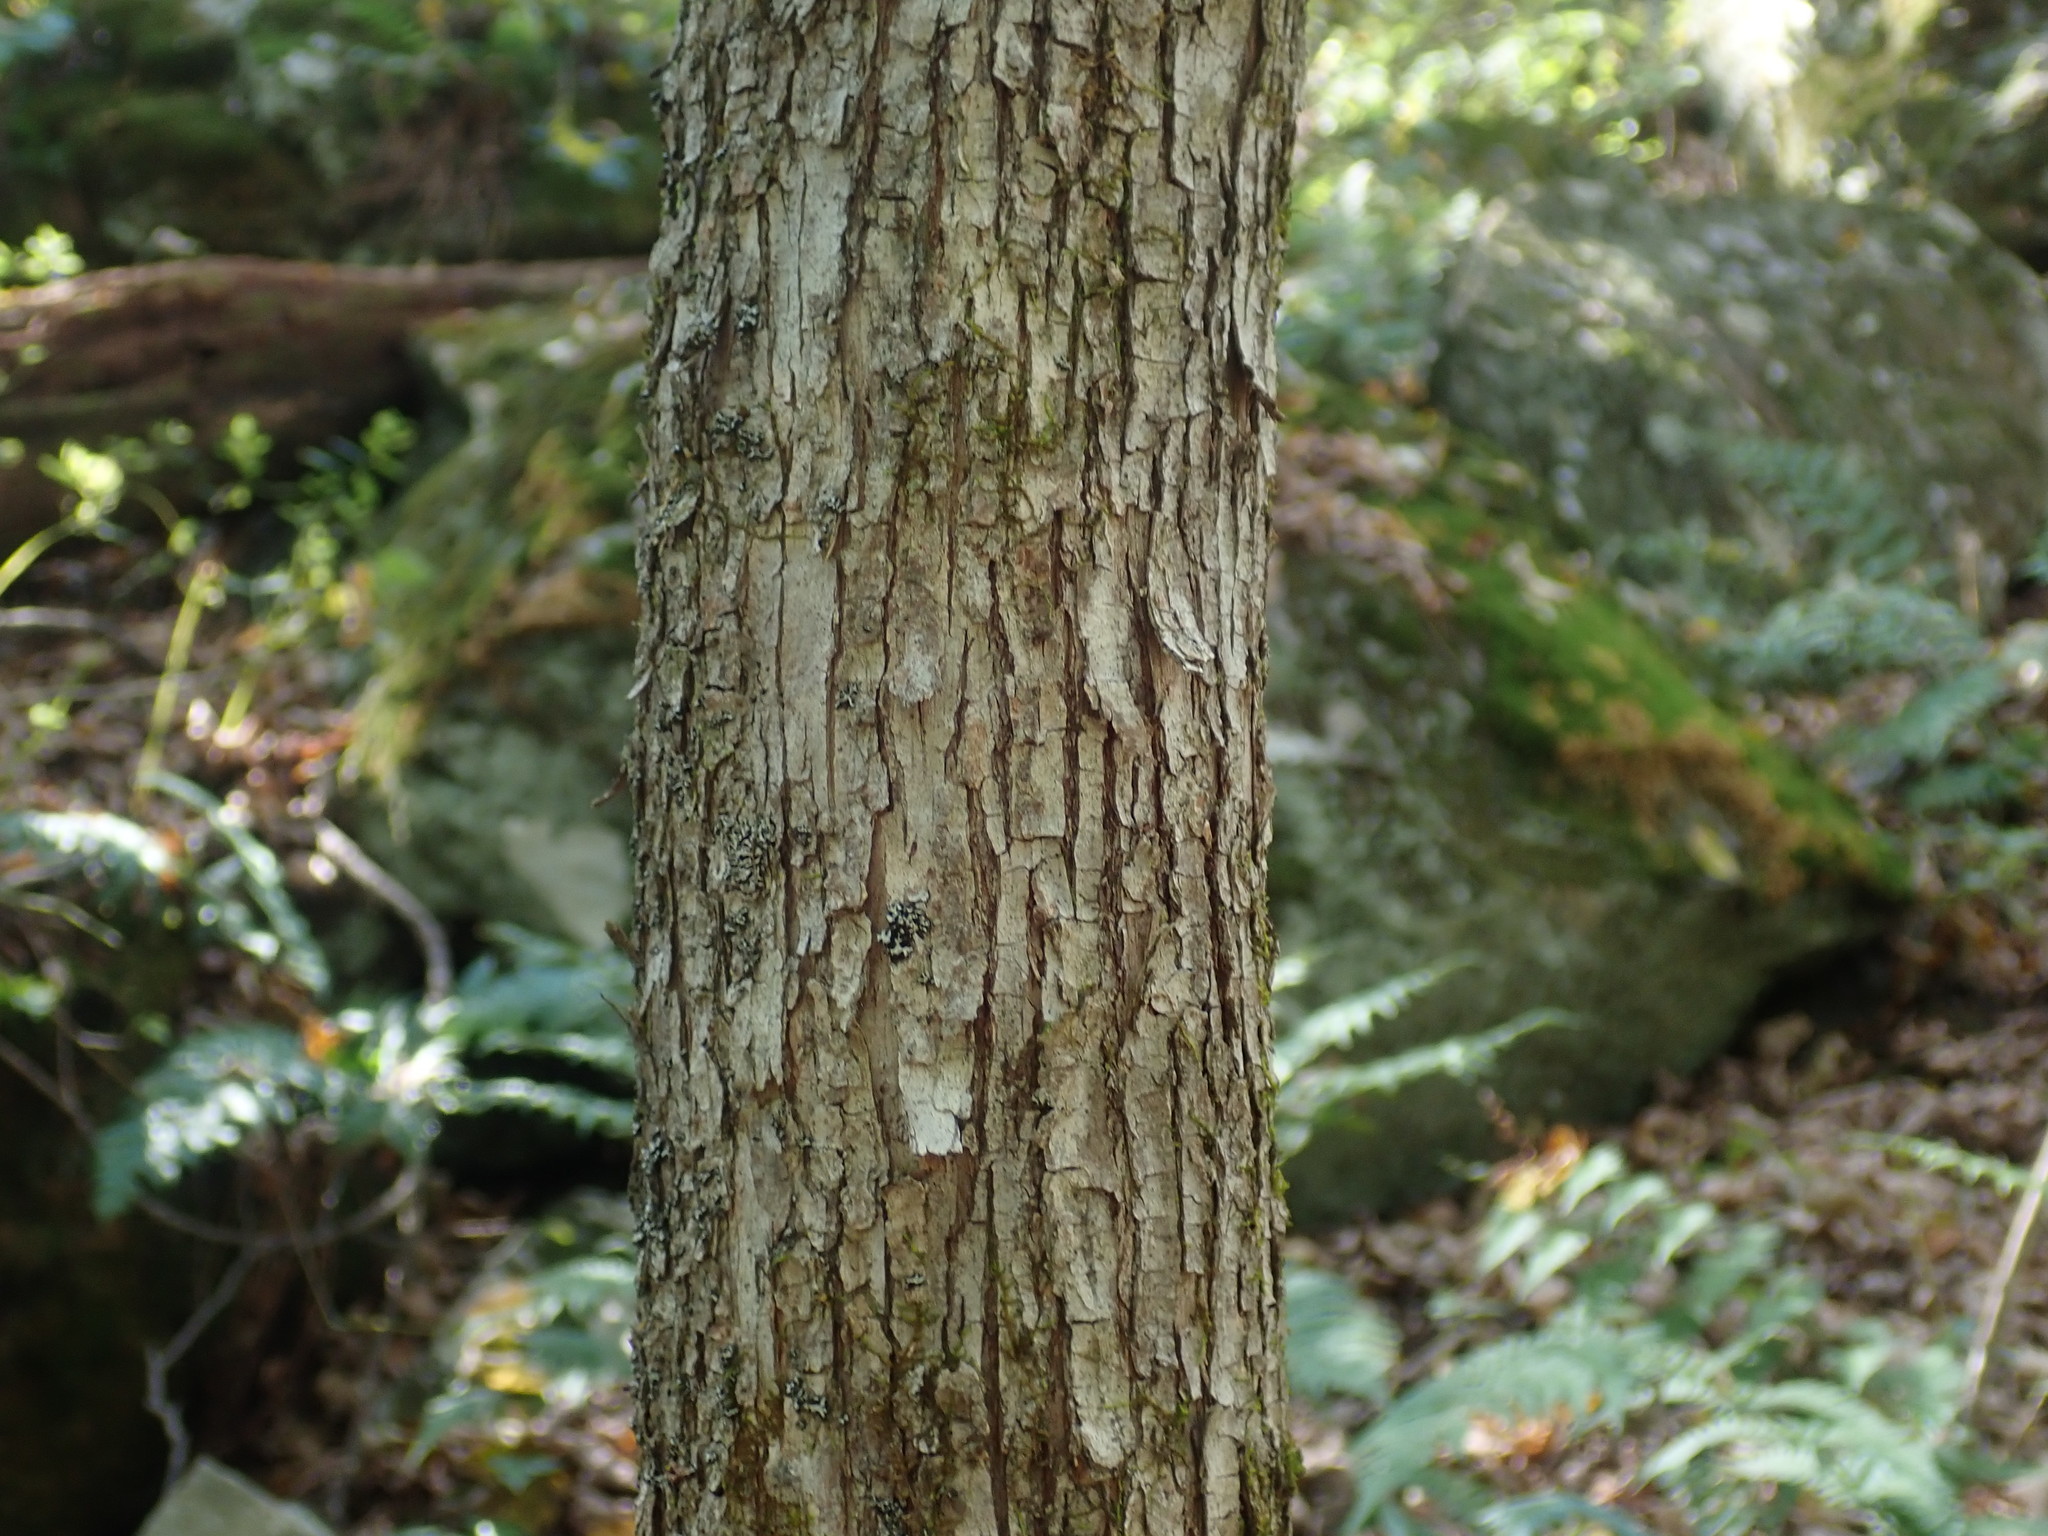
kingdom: Plantae
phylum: Tracheophyta
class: Magnoliopsida
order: Fagales
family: Betulaceae
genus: Ostrya
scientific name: Ostrya virginiana
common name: Ironwood
